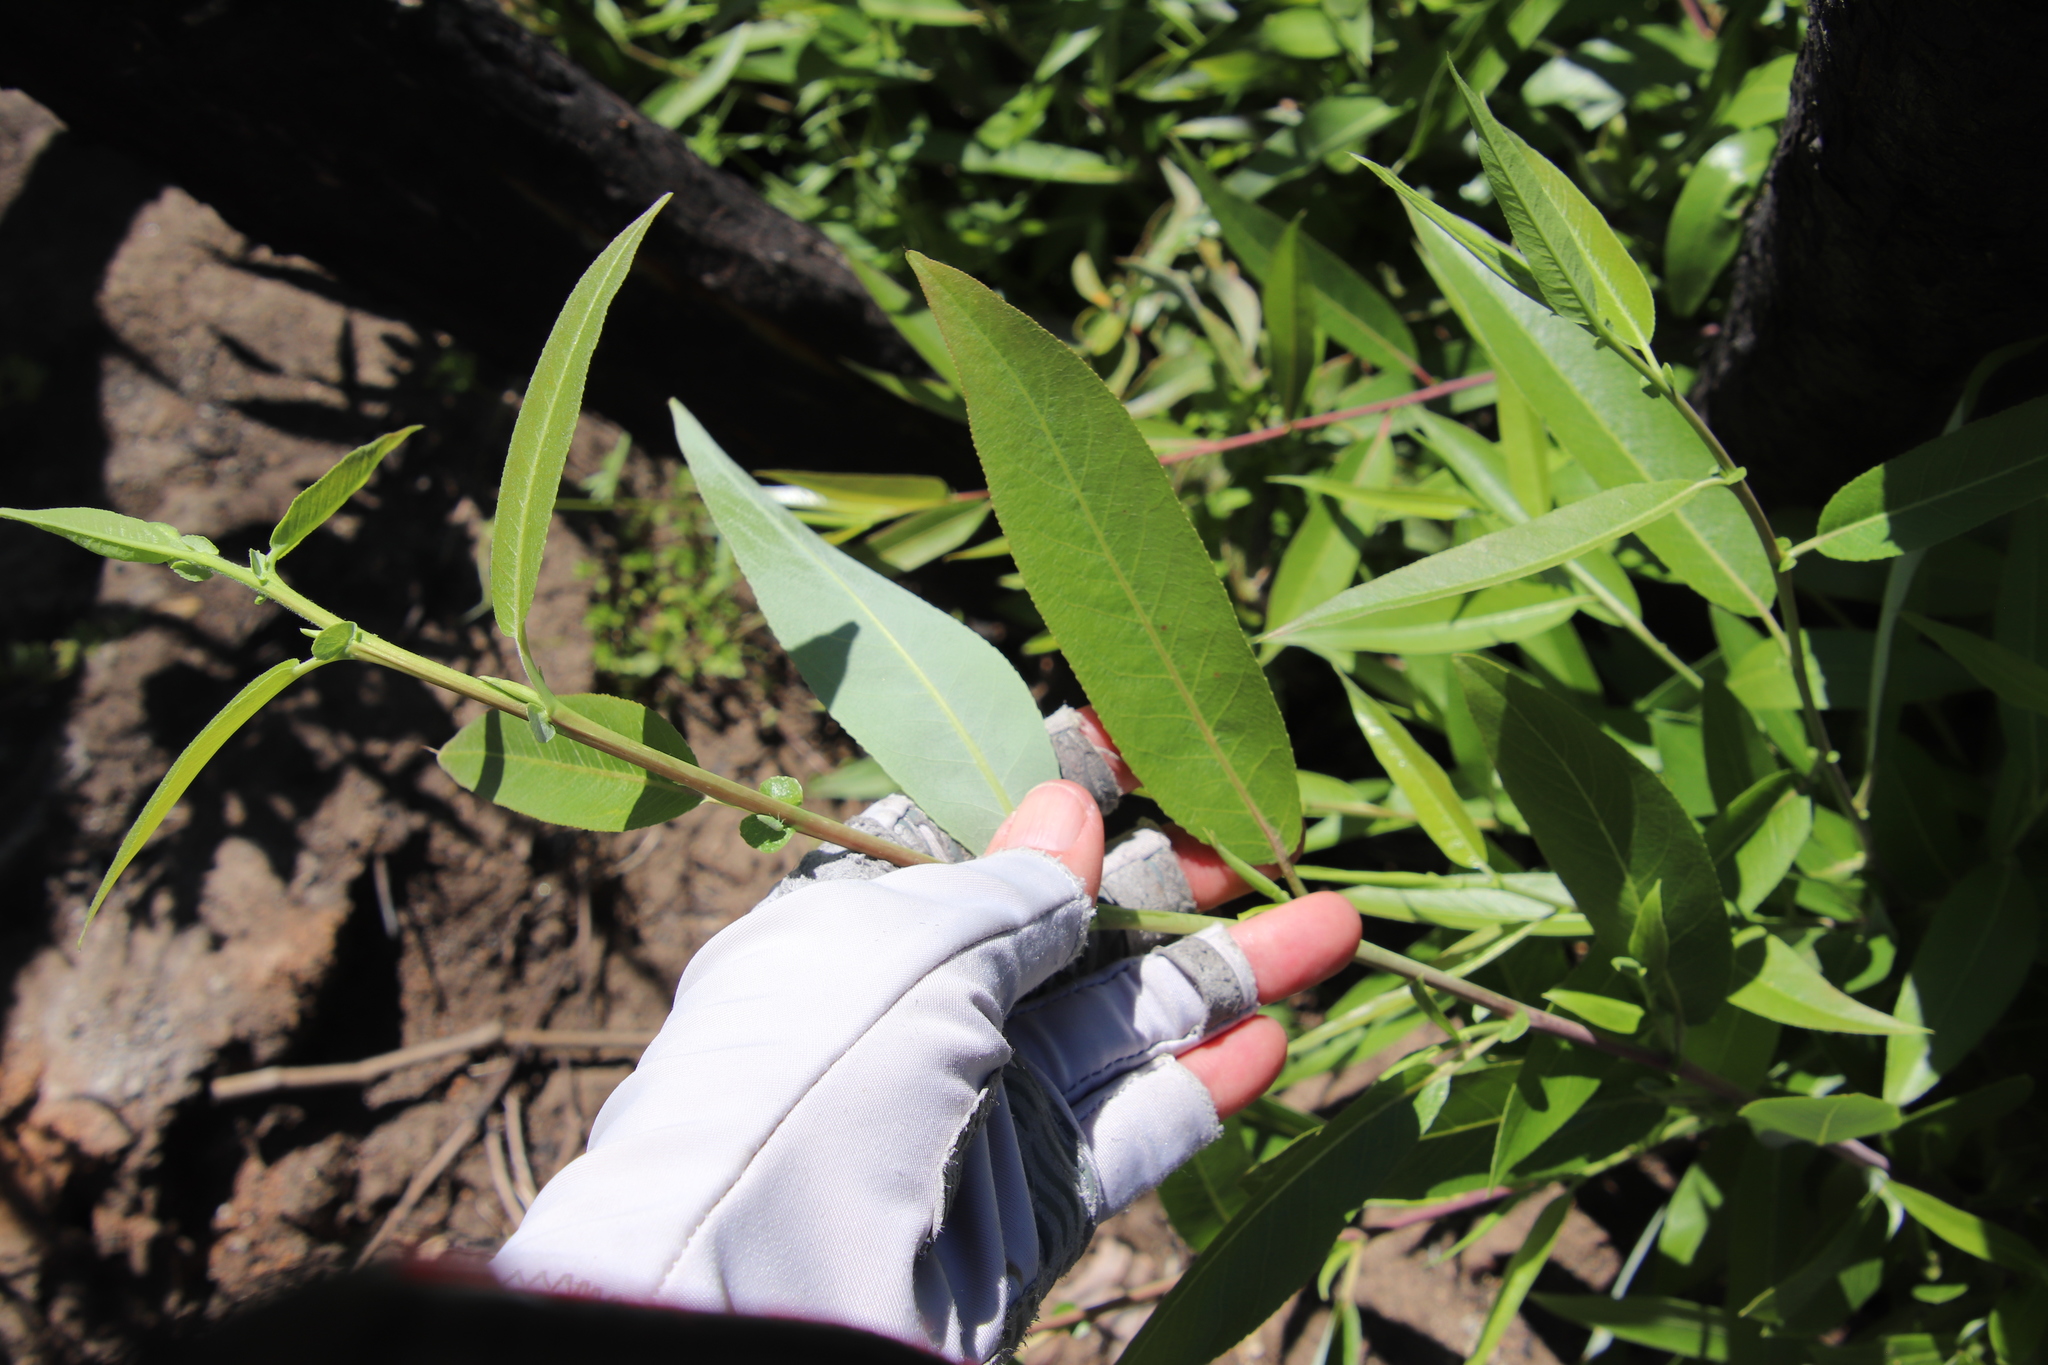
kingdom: Plantae
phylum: Tracheophyta
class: Magnoliopsida
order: Malpighiales
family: Salicaceae
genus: Salix
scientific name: Salix laevigata
